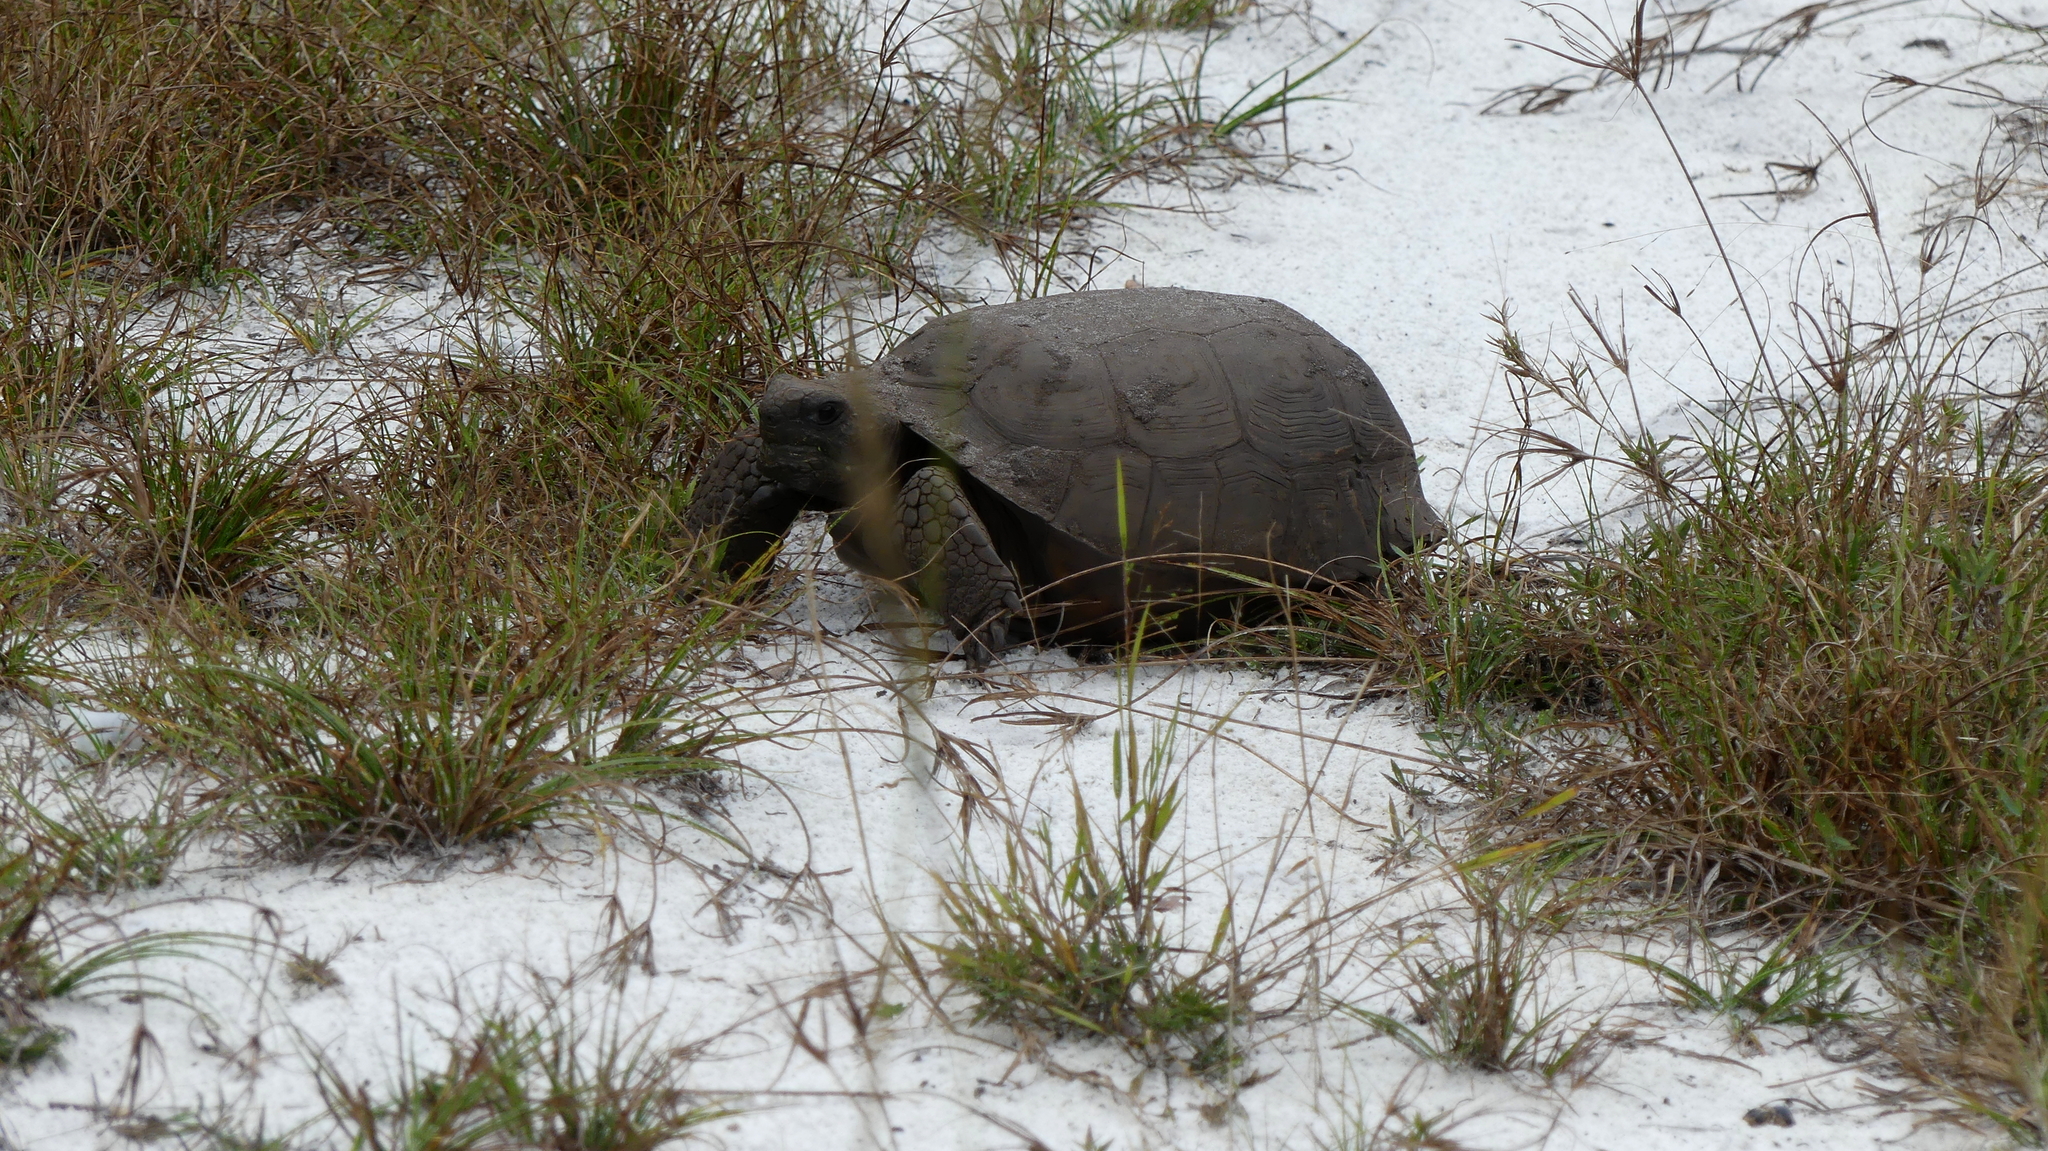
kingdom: Animalia
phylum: Chordata
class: Testudines
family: Testudinidae
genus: Gopherus
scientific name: Gopherus polyphemus
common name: Florida gopher tortoise
